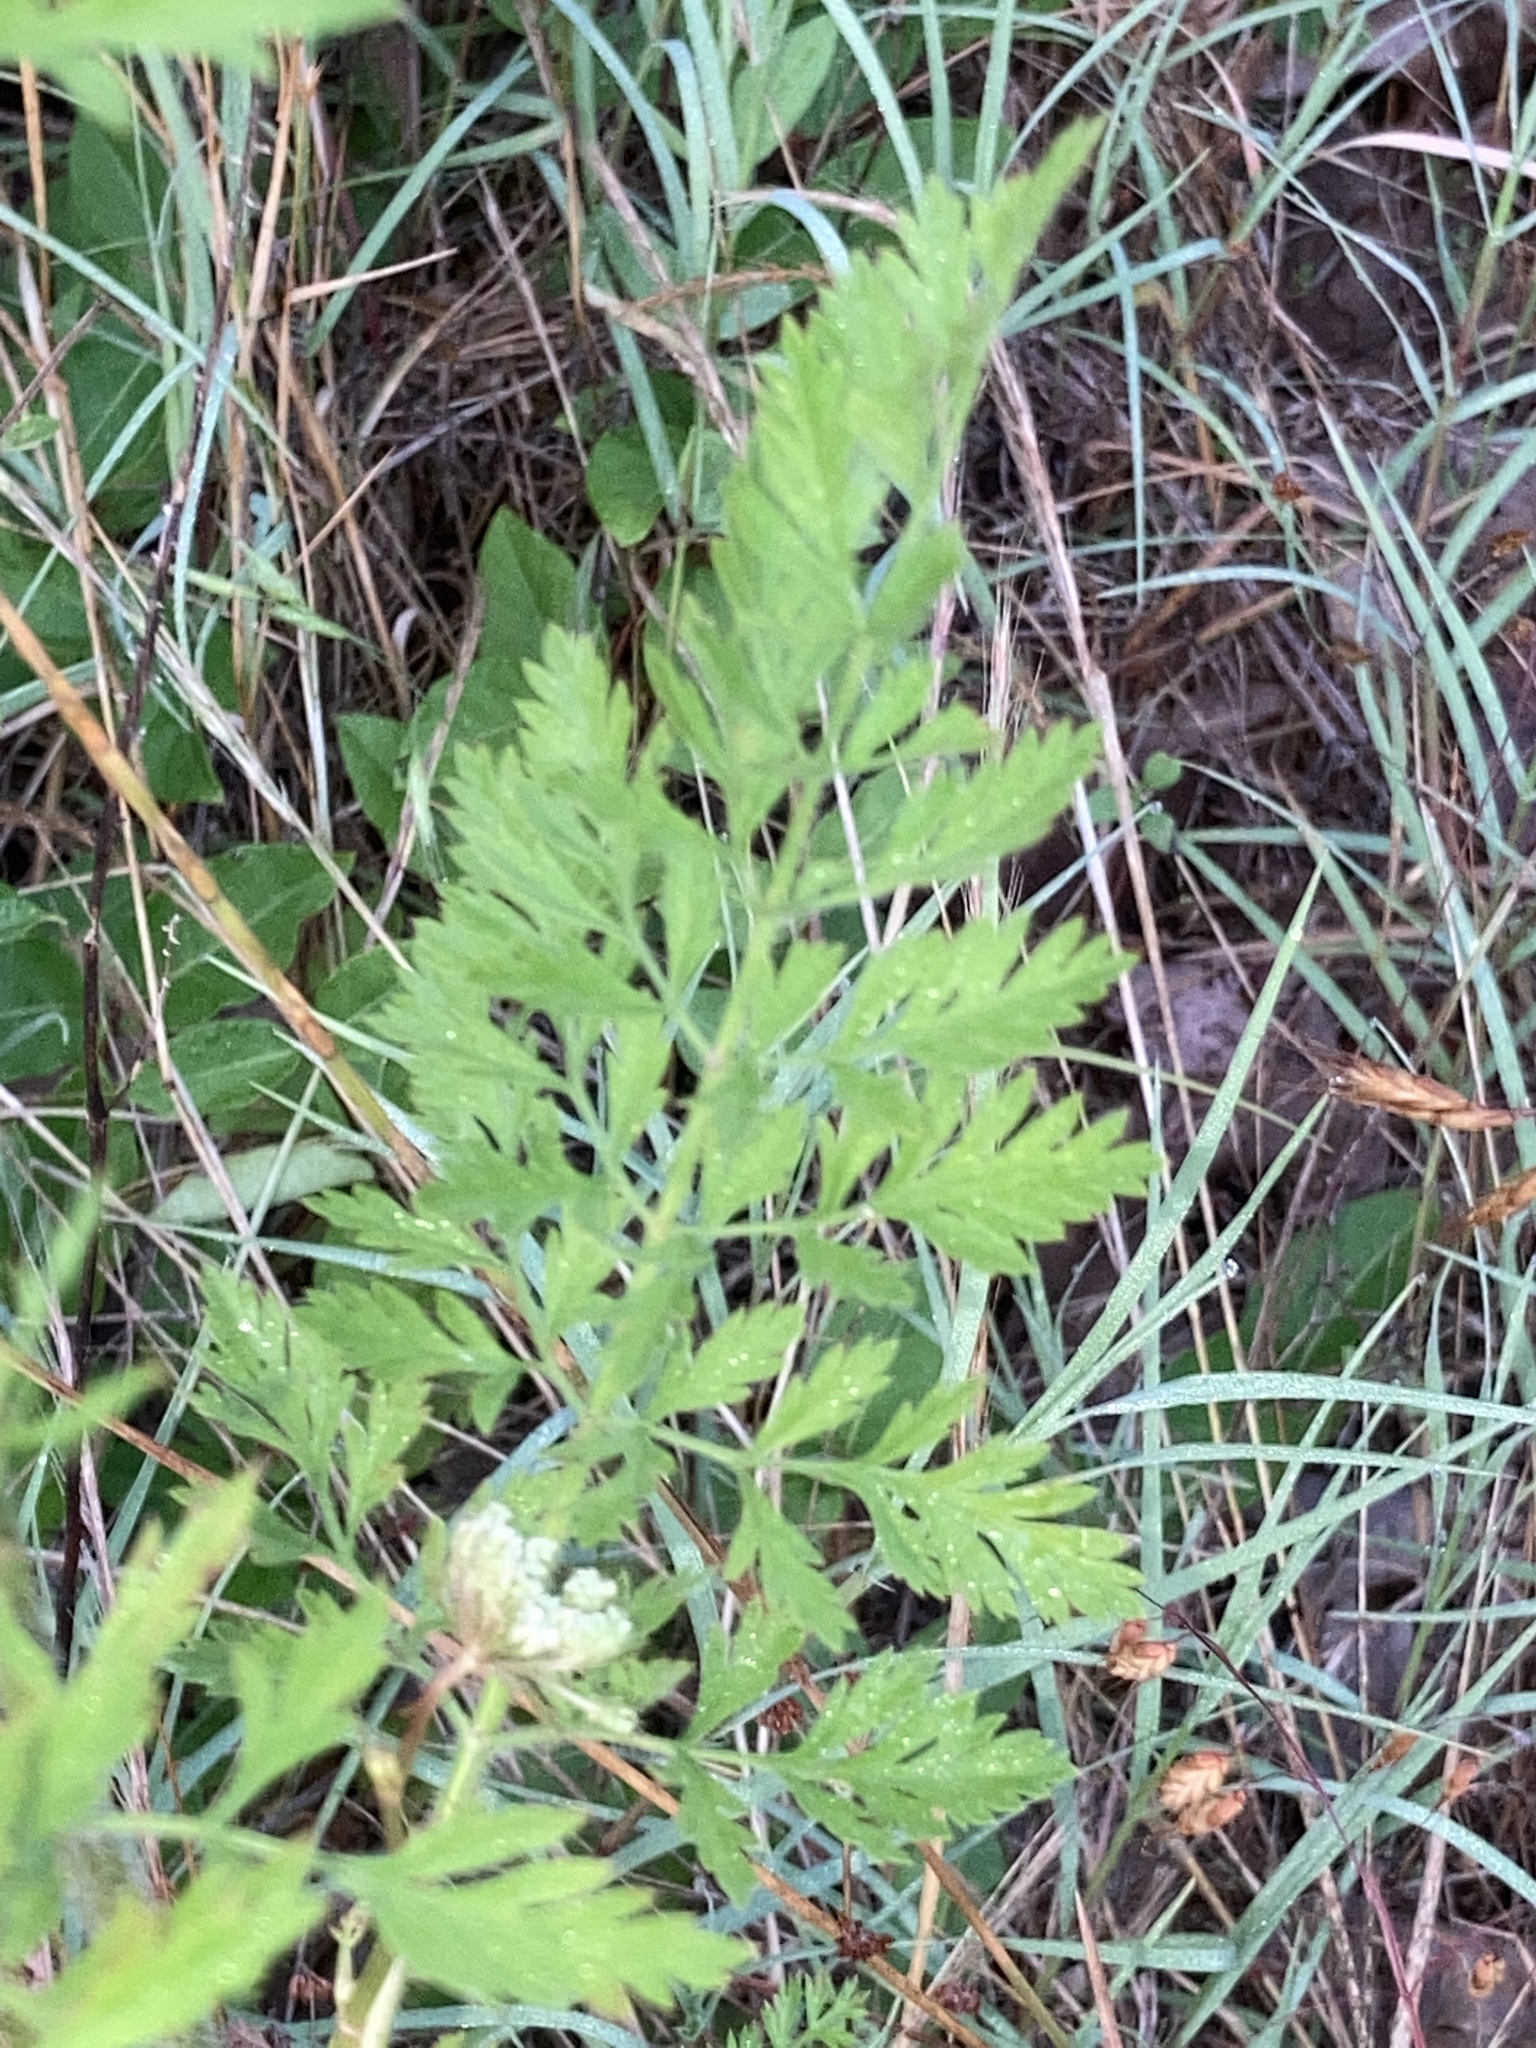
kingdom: Plantae
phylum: Tracheophyta
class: Magnoliopsida
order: Apiales
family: Apiaceae
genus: Daucus
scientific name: Daucus carota
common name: Wild carrot
